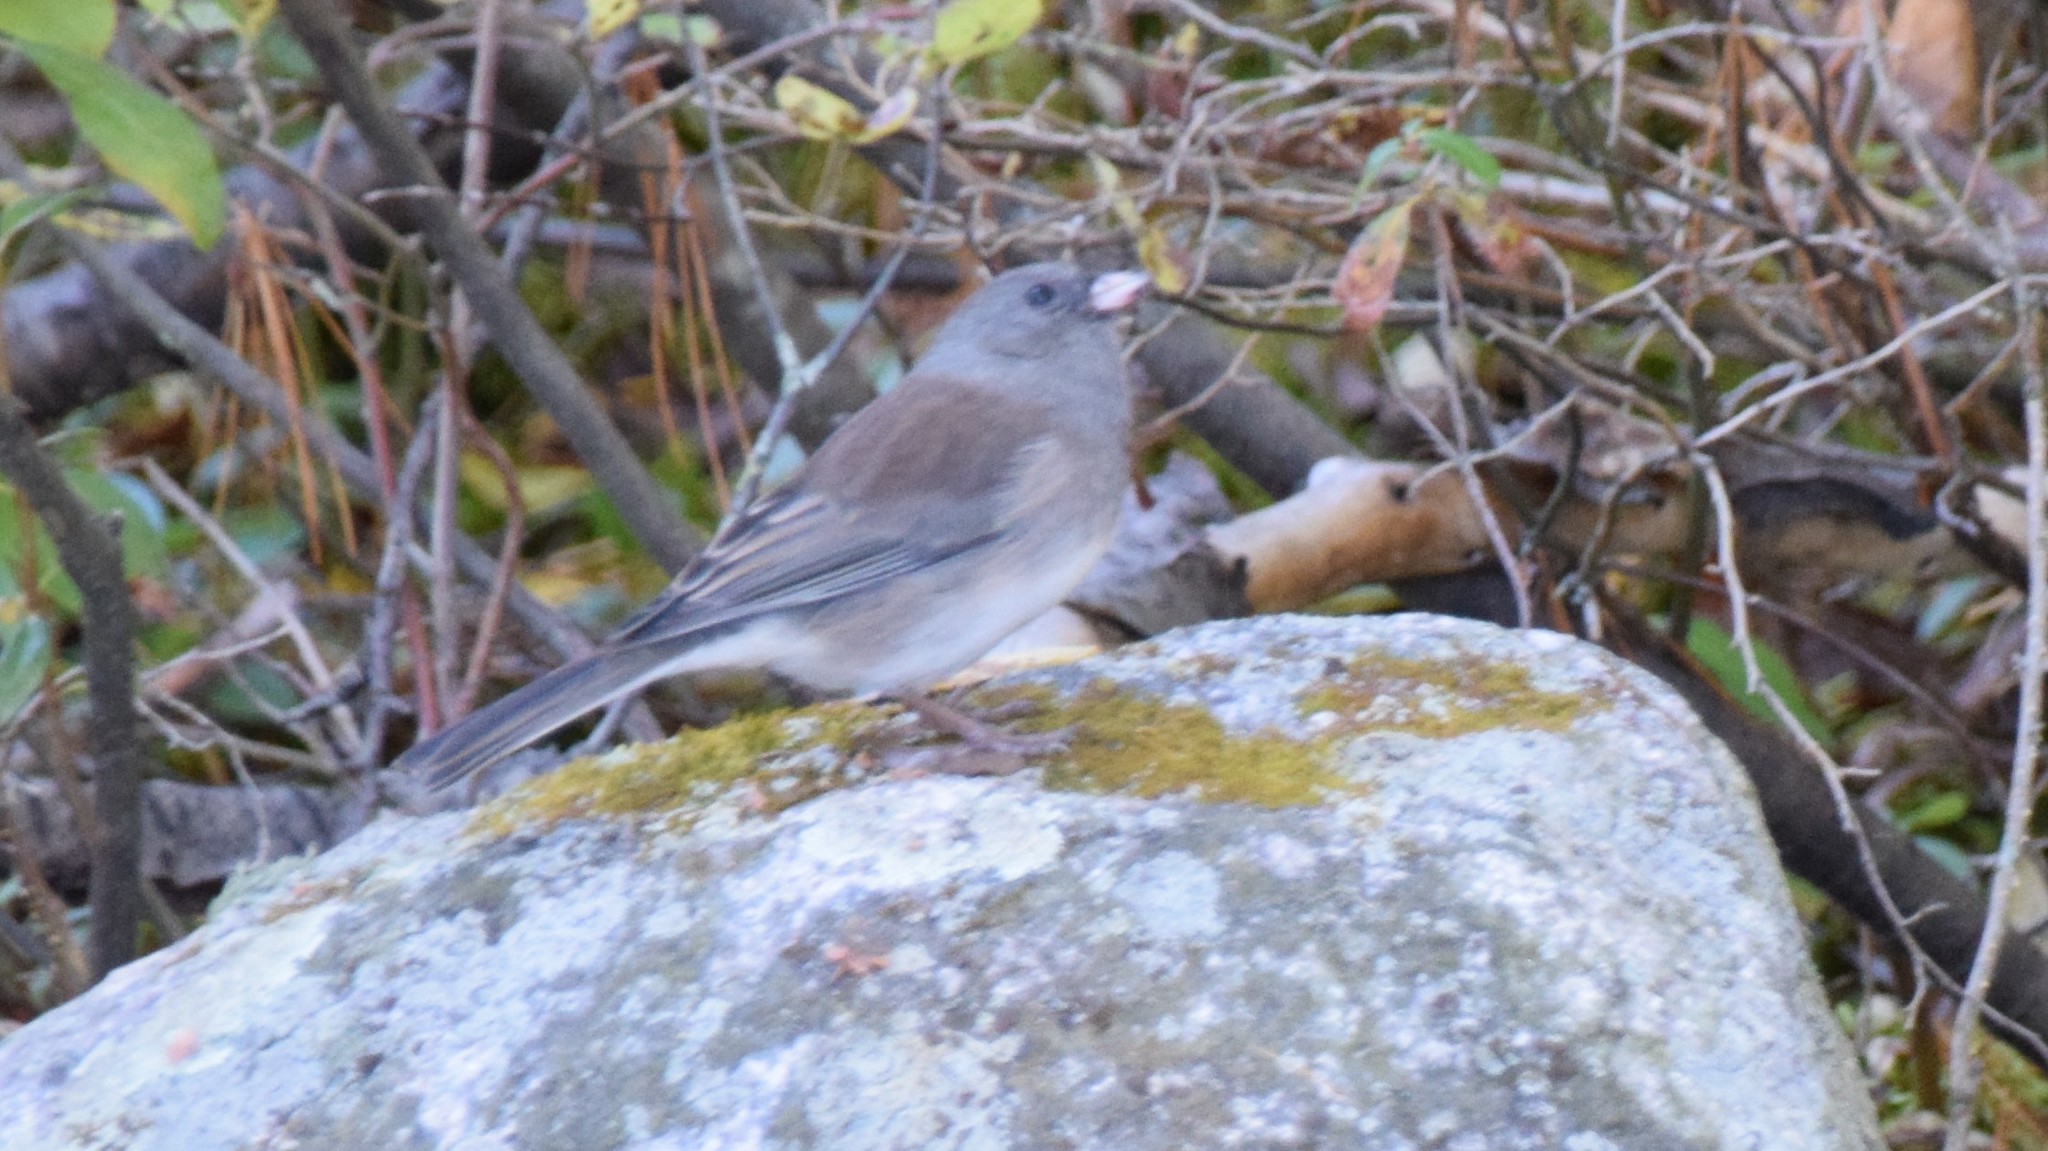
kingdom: Animalia
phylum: Chordata
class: Aves
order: Passeriformes
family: Passerellidae
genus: Junco
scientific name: Junco hyemalis
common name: Dark-eyed junco
